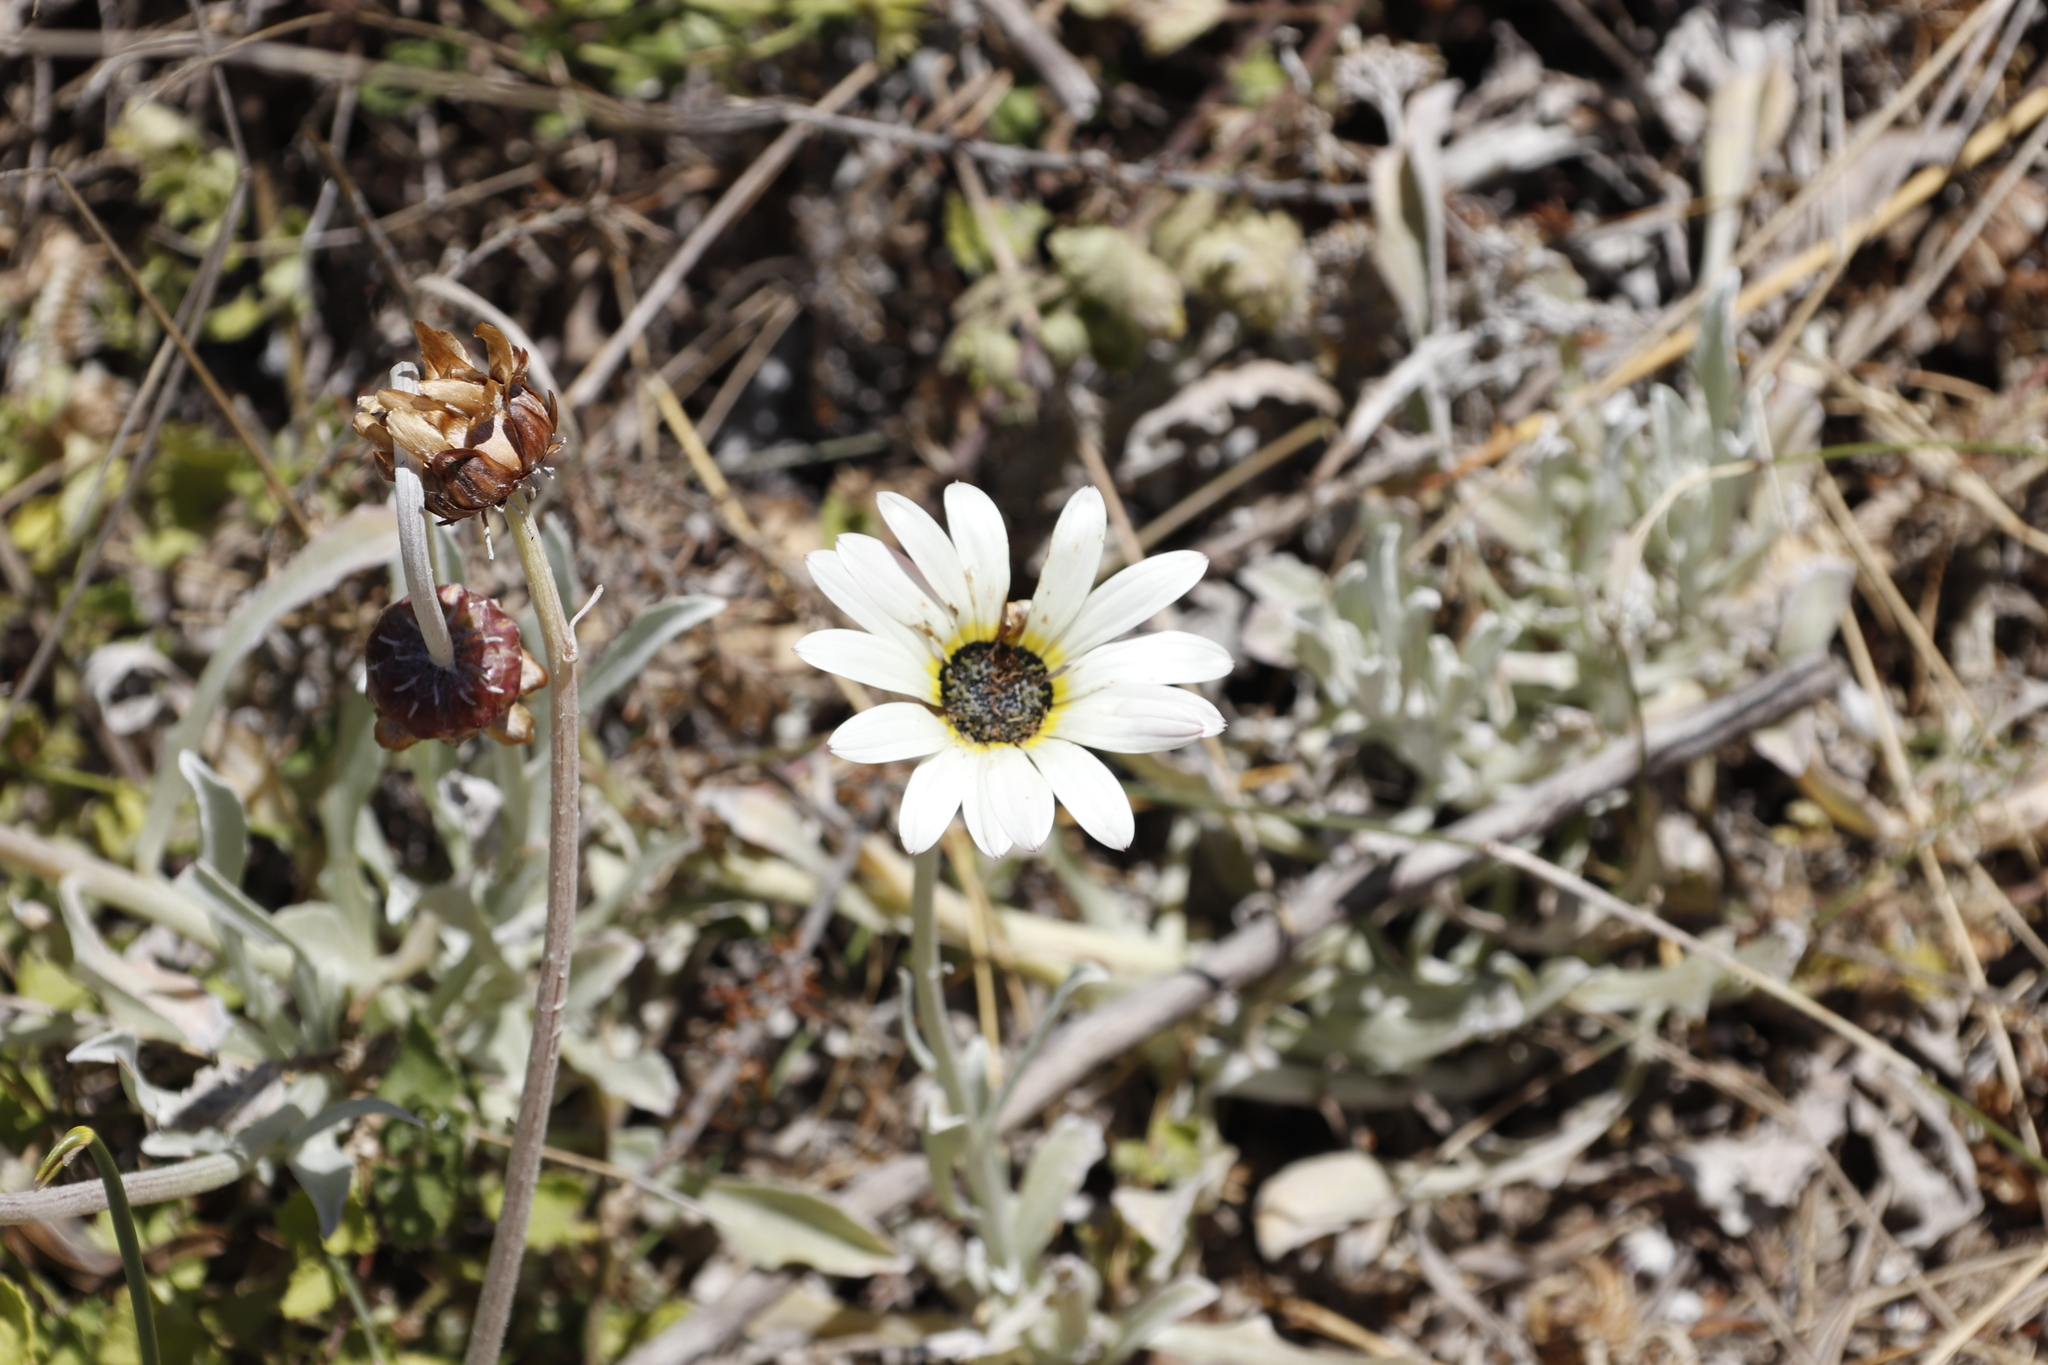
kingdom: Plantae
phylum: Tracheophyta
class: Magnoliopsida
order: Asterales
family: Asteraceae
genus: Arctotis
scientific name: Arctotis stoechadifolia
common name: African daisy
